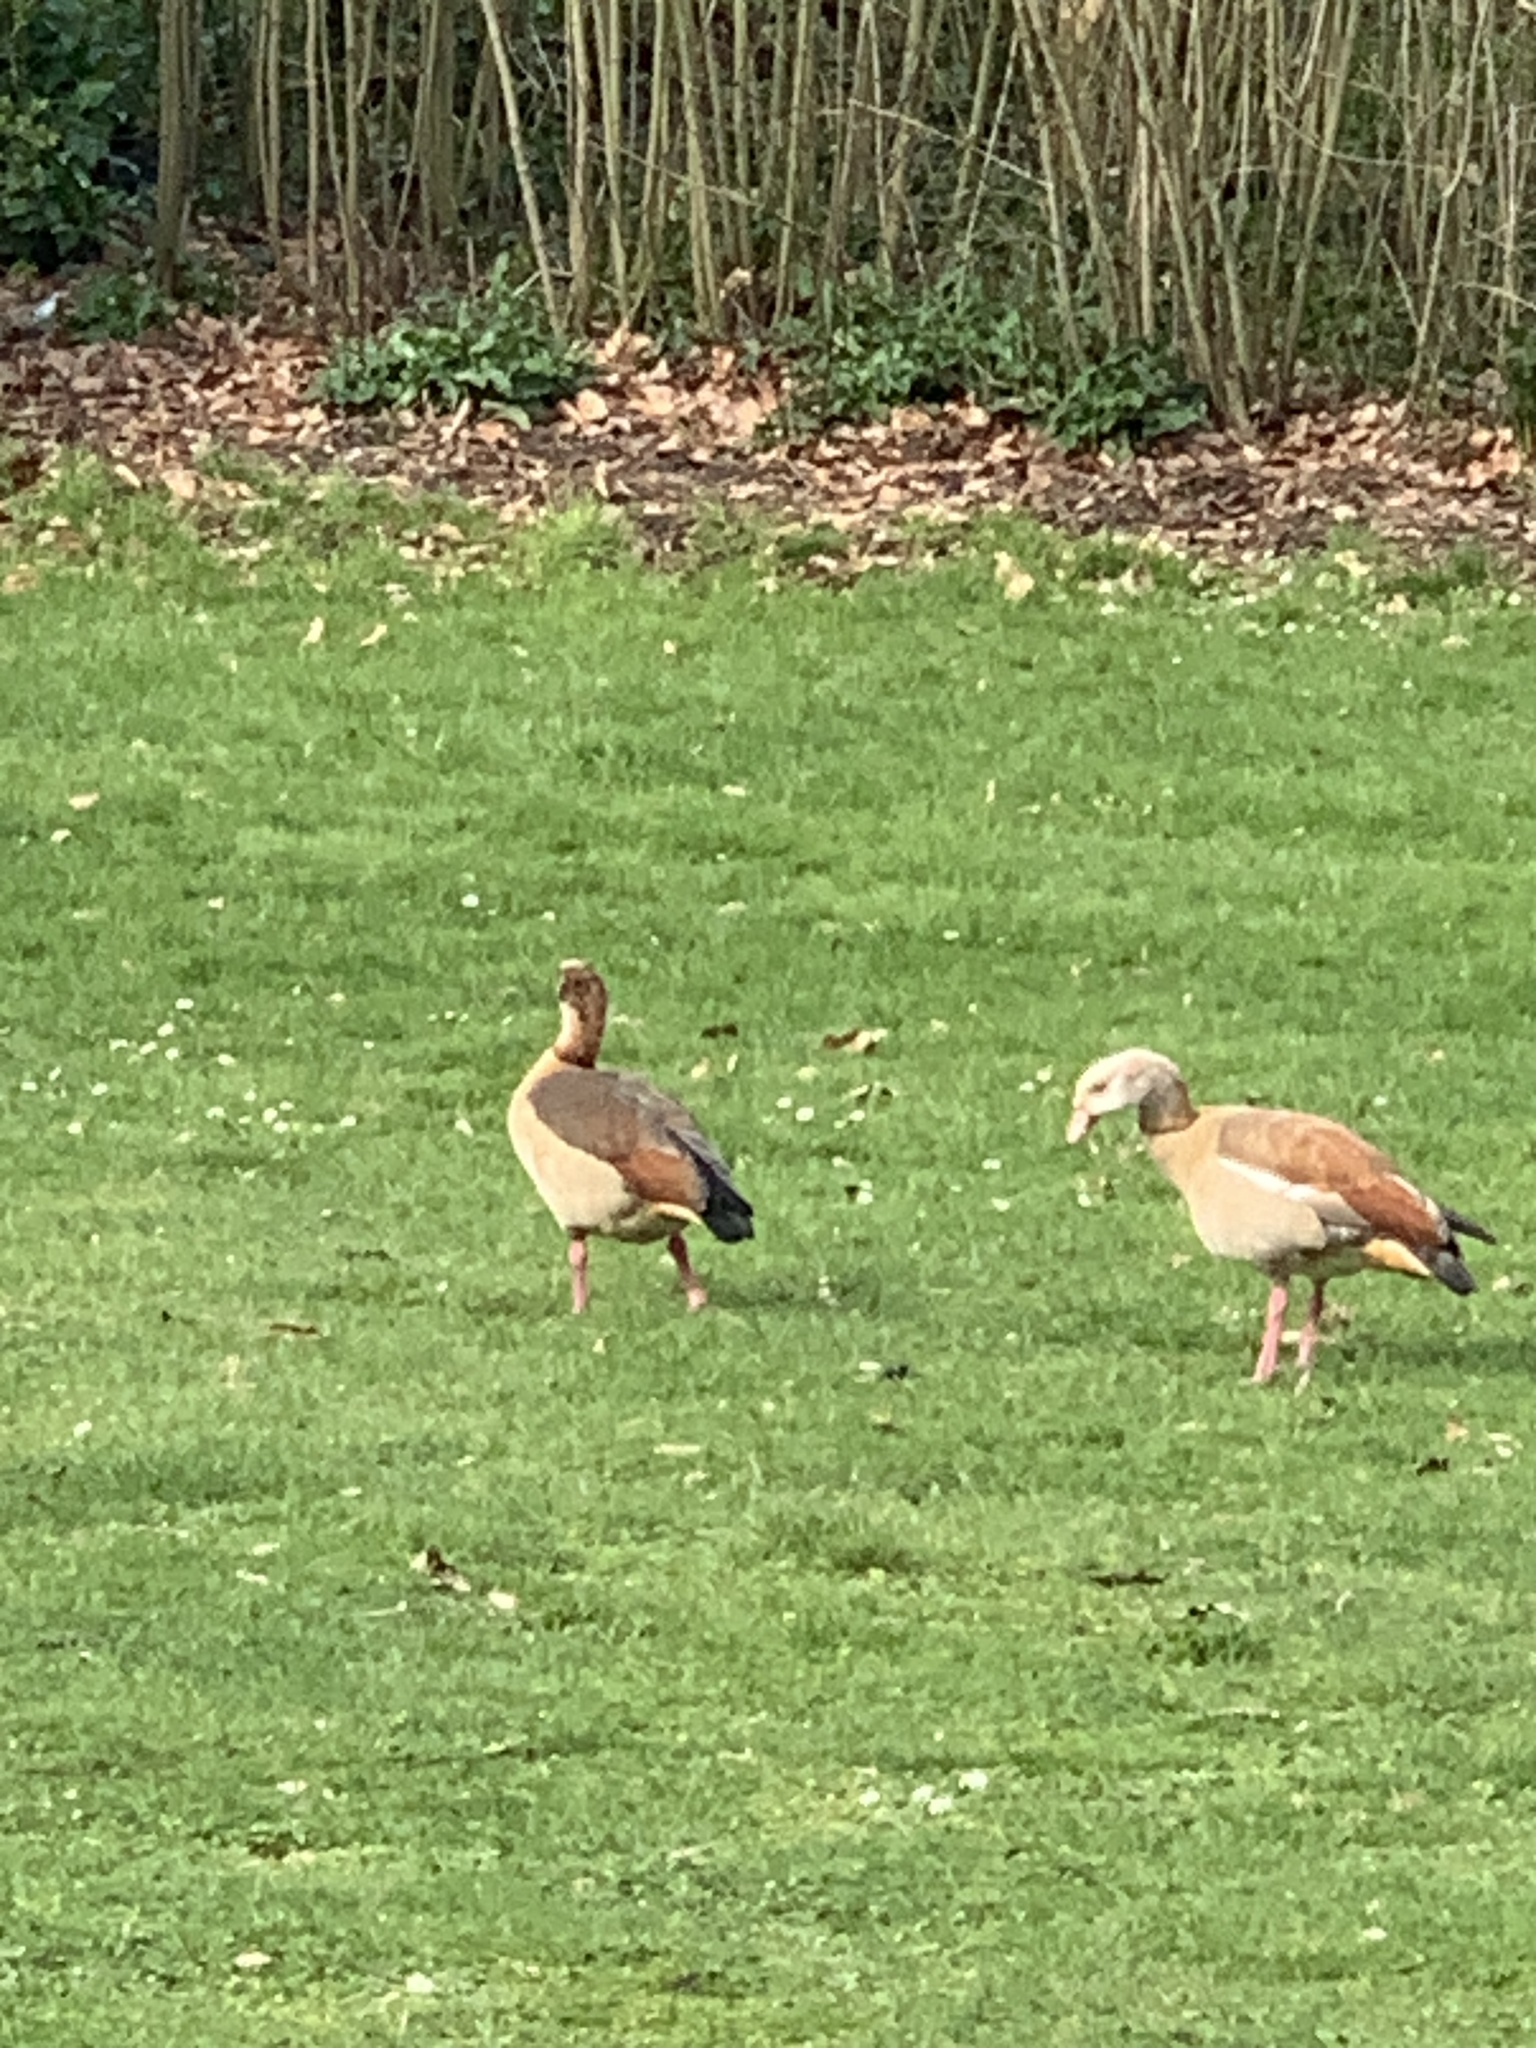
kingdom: Animalia
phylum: Chordata
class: Aves
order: Anseriformes
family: Anatidae
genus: Alopochen
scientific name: Alopochen aegyptiaca
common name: Egyptian goose
